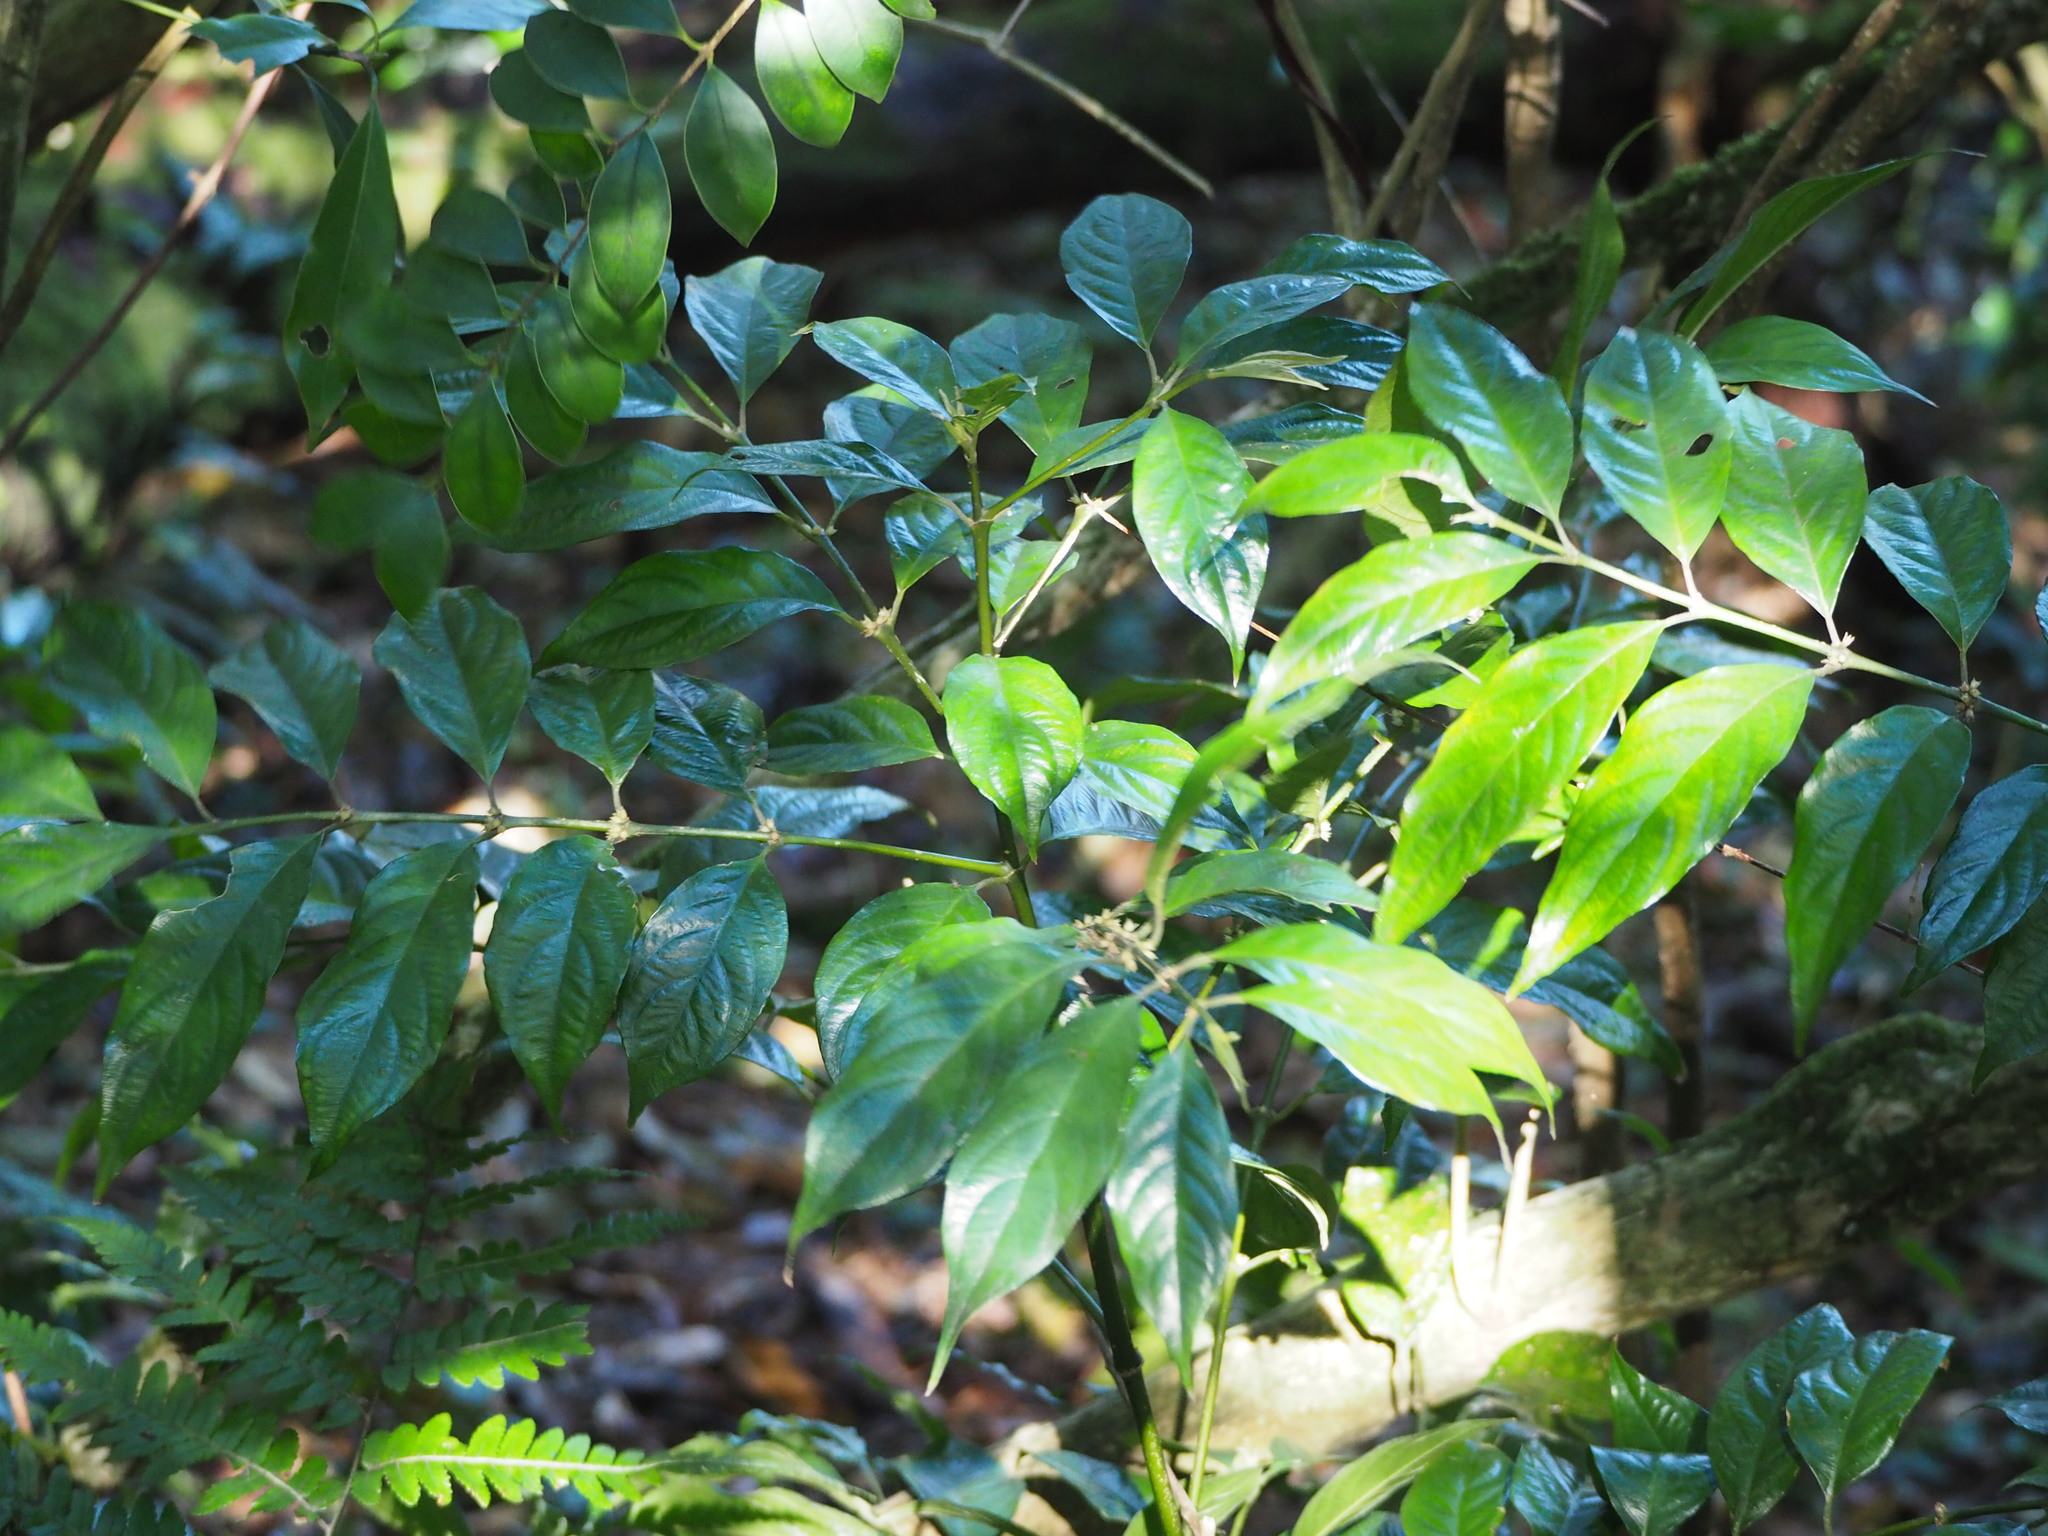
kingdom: Plantae
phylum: Tracheophyta
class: Magnoliopsida
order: Gentianales
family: Rubiaceae
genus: Lasianthus
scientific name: Lasianthus fordii
